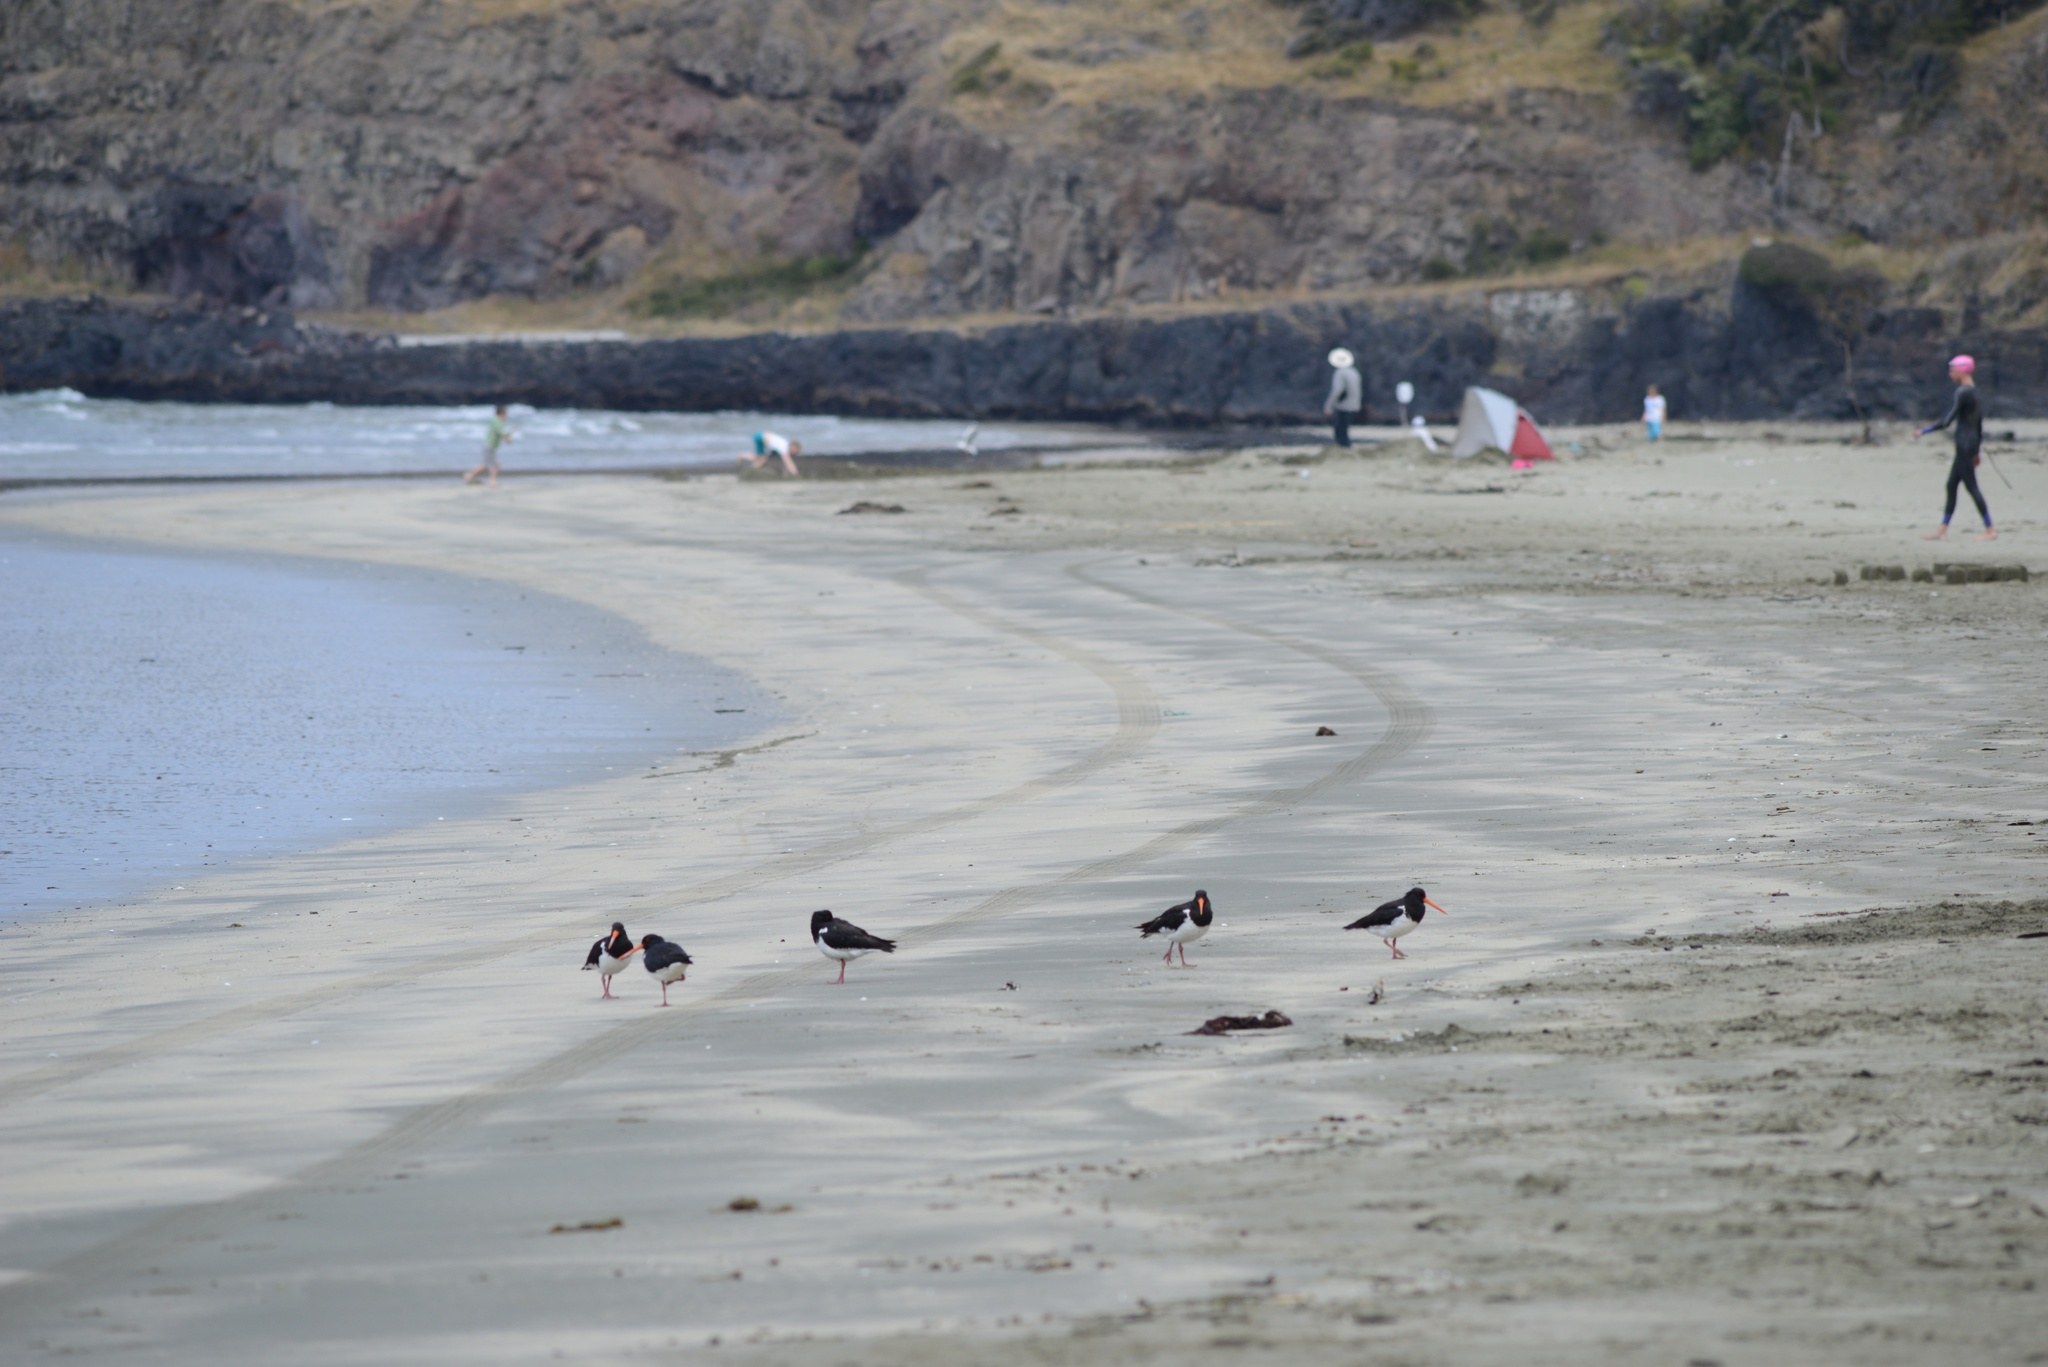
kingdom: Animalia
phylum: Chordata
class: Aves
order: Charadriiformes
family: Haematopodidae
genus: Haematopus
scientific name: Haematopus finschi
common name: South island oystercatcher
